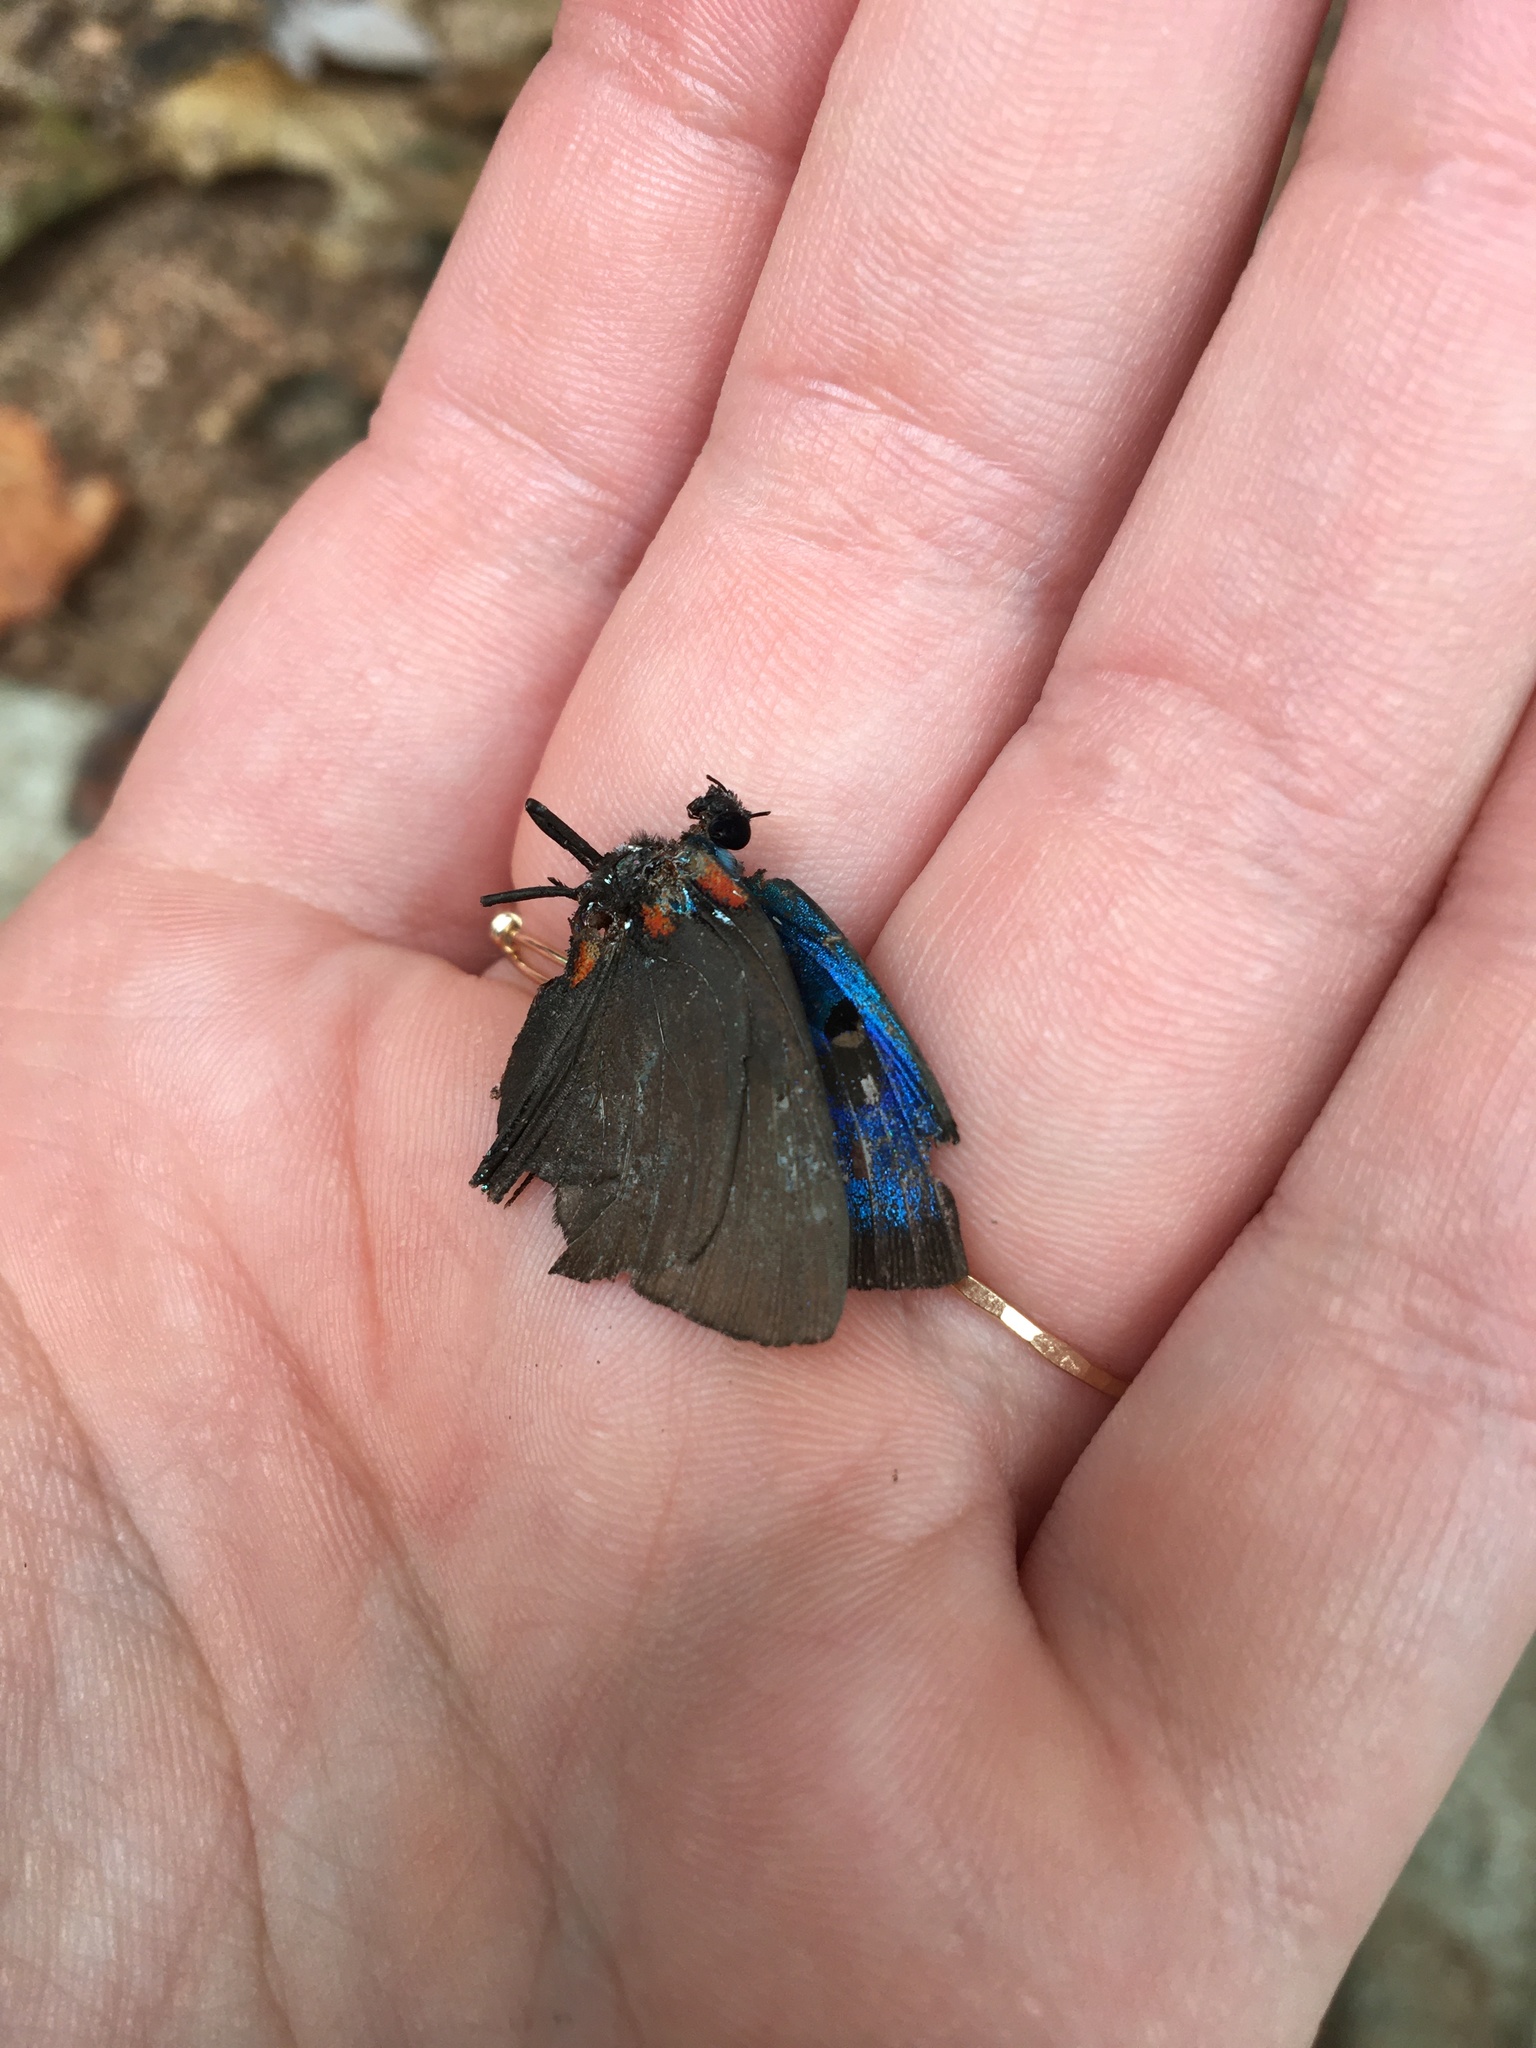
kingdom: Animalia
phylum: Arthropoda
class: Insecta
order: Lepidoptera
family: Lycaenidae
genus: Atlides
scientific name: Atlides halesus
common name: Great purple hairstreak
